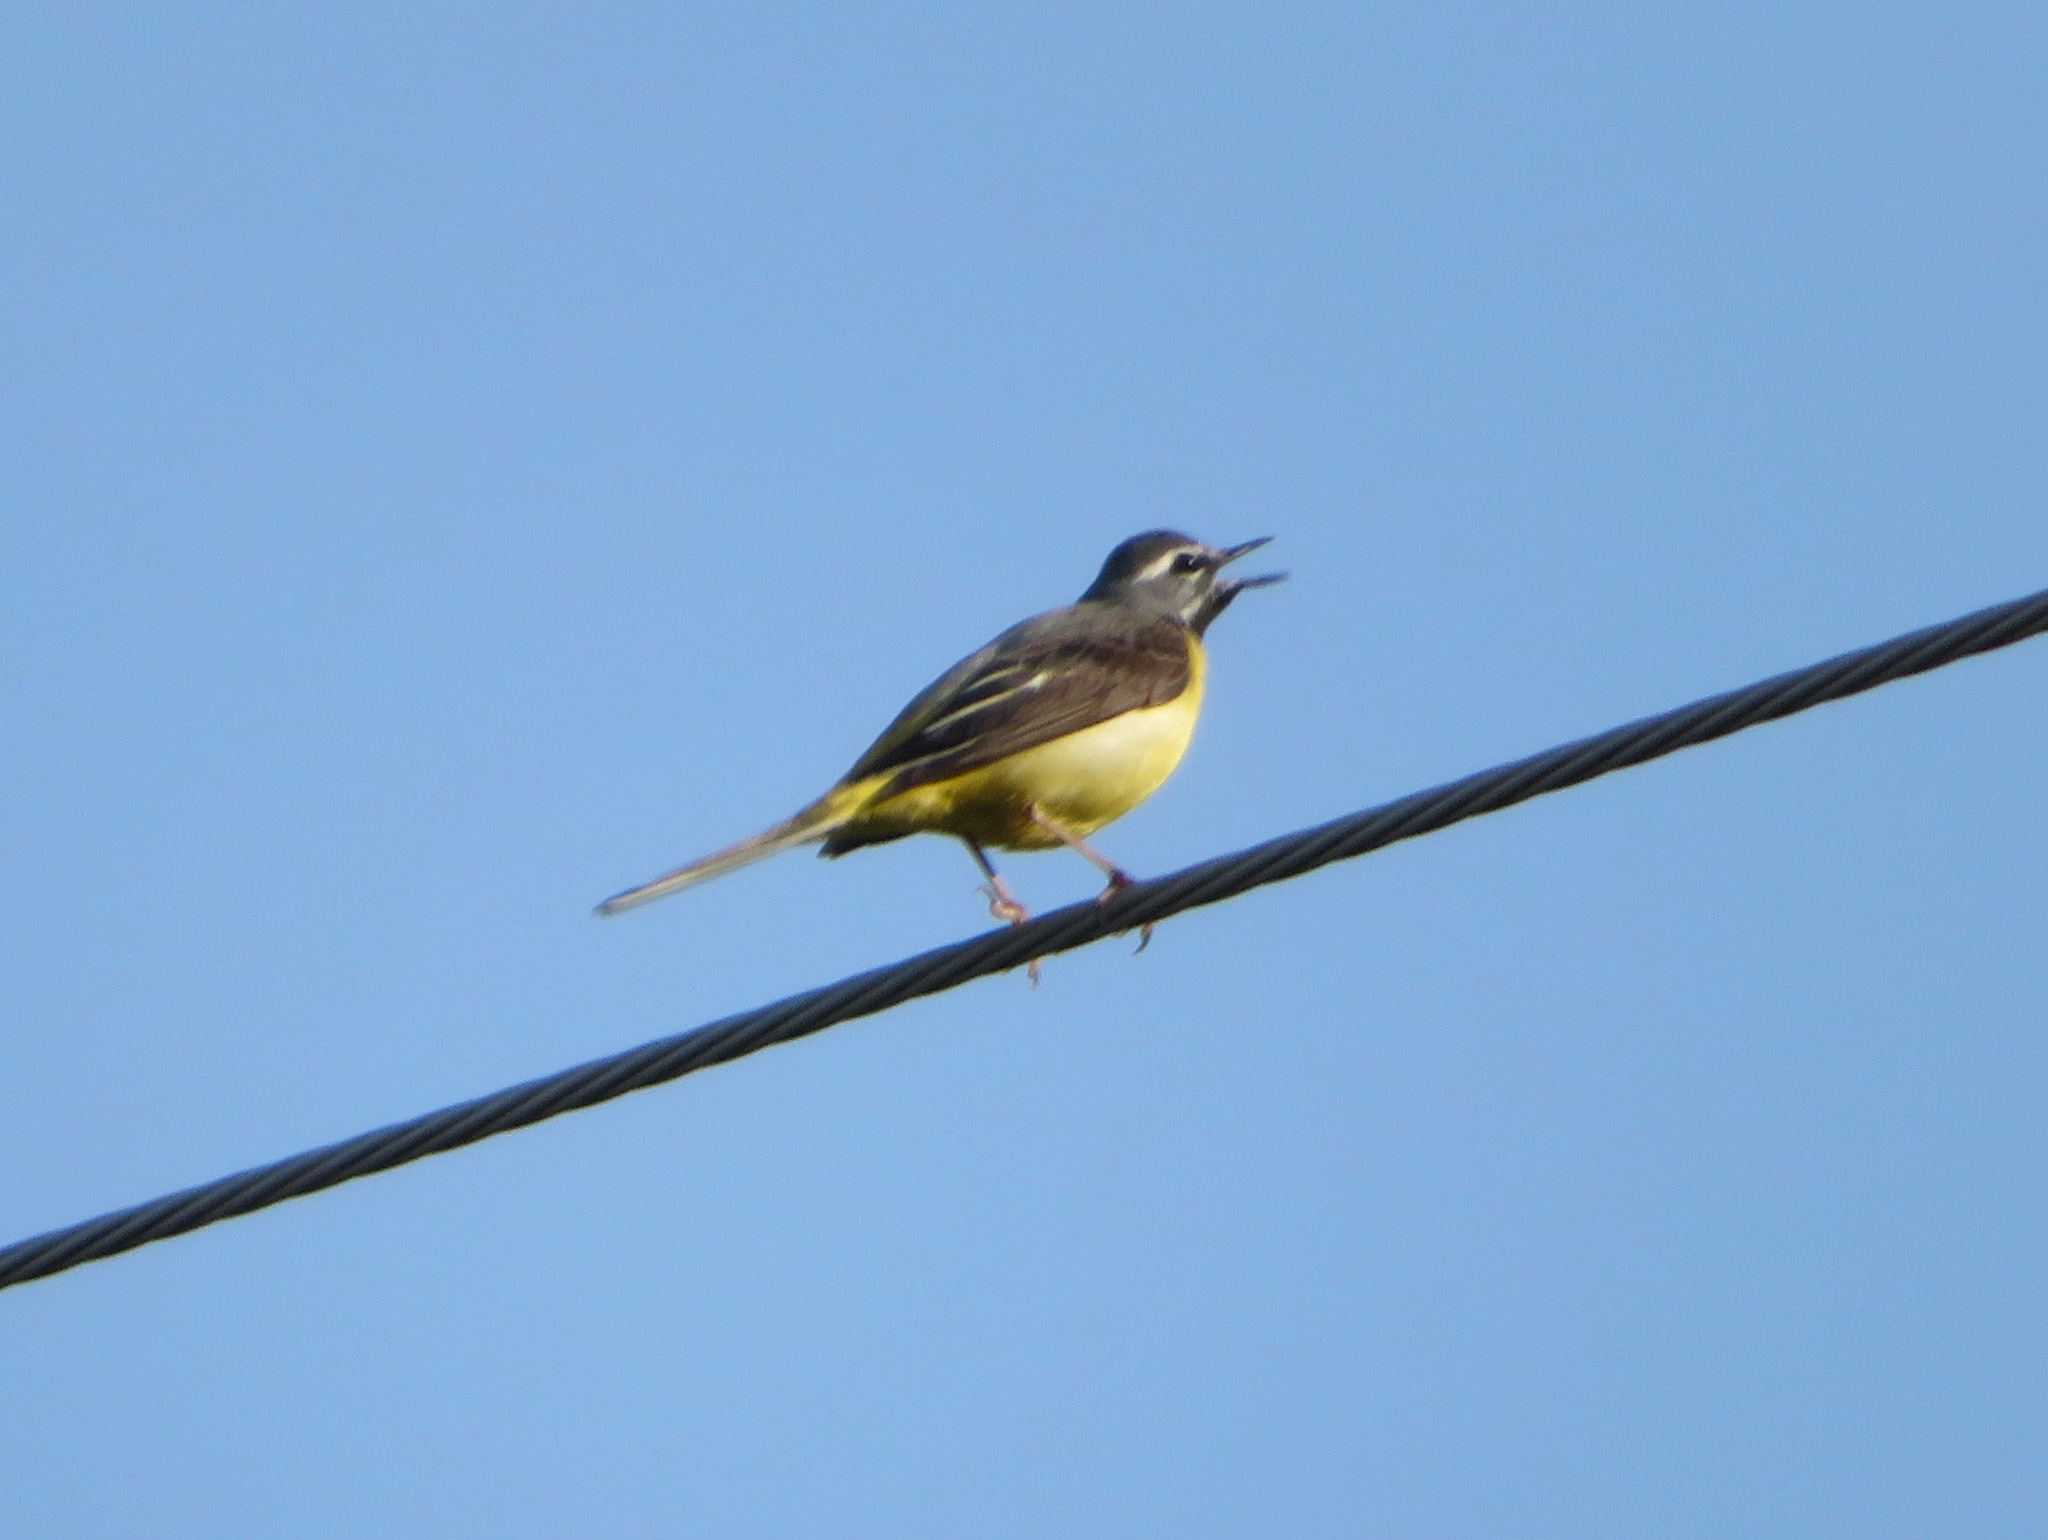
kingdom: Animalia
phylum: Chordata
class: Aves
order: Passeriformes
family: Motacillidae
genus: Motacilla
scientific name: Motacilla cinerea
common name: Grey wagtail
